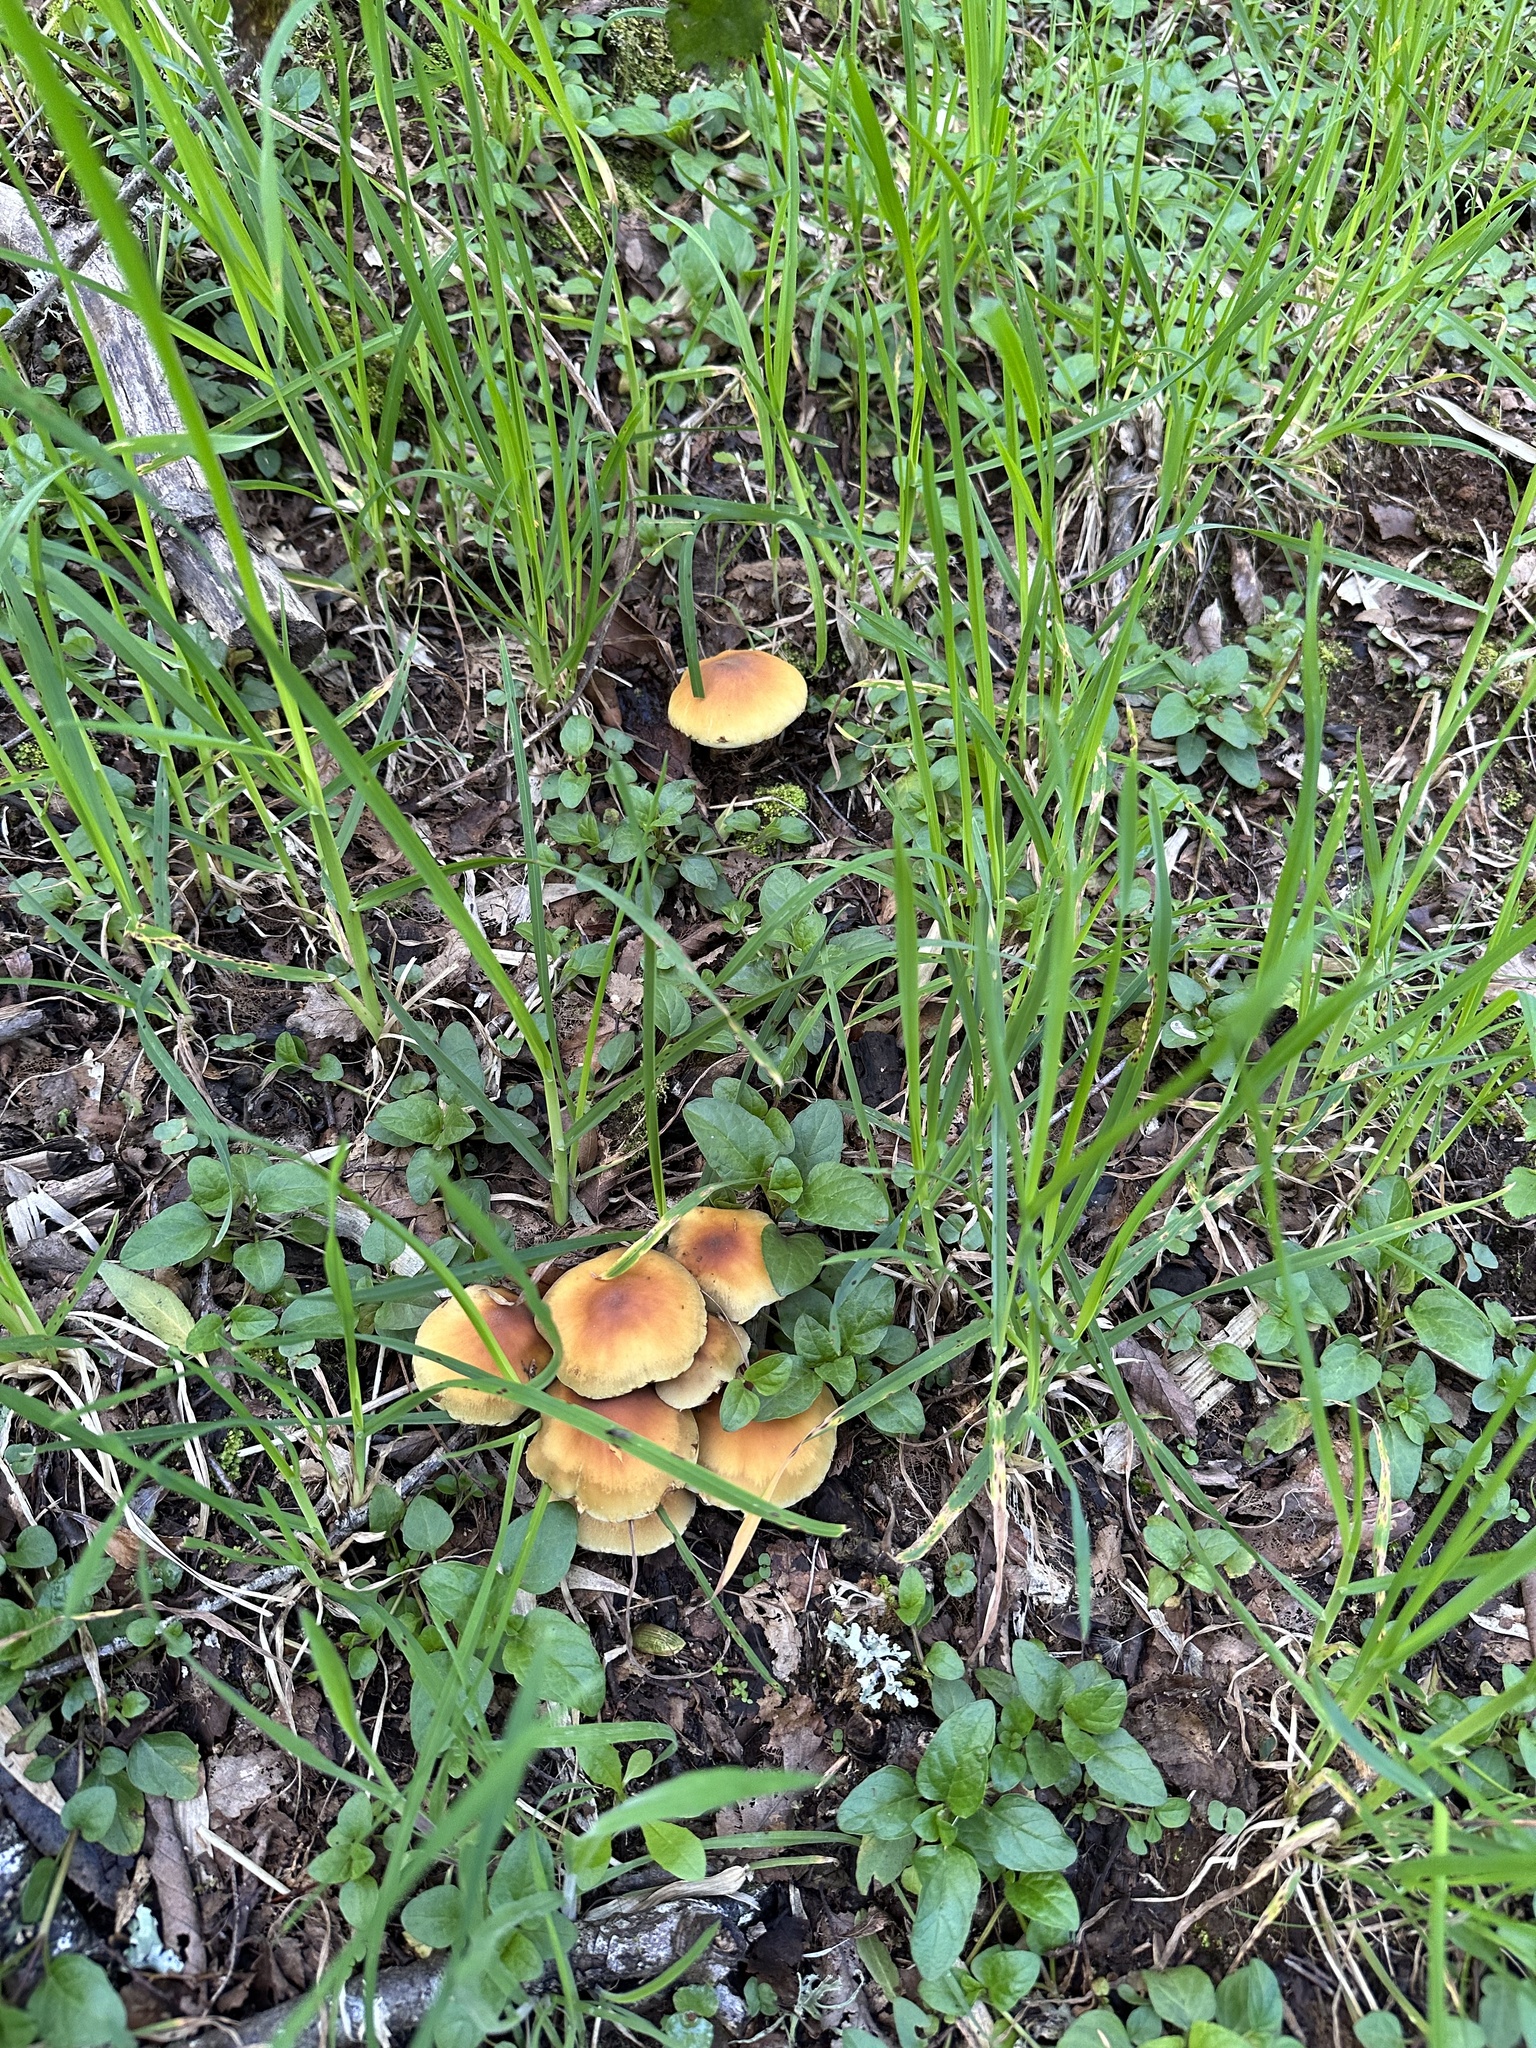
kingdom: Fungi
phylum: Basidiomycota
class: Agaricomycetes
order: Agaricales
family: Strophariaceae
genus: Hypholoma
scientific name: Hypholoma fasciculare
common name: Sulphur tuft
